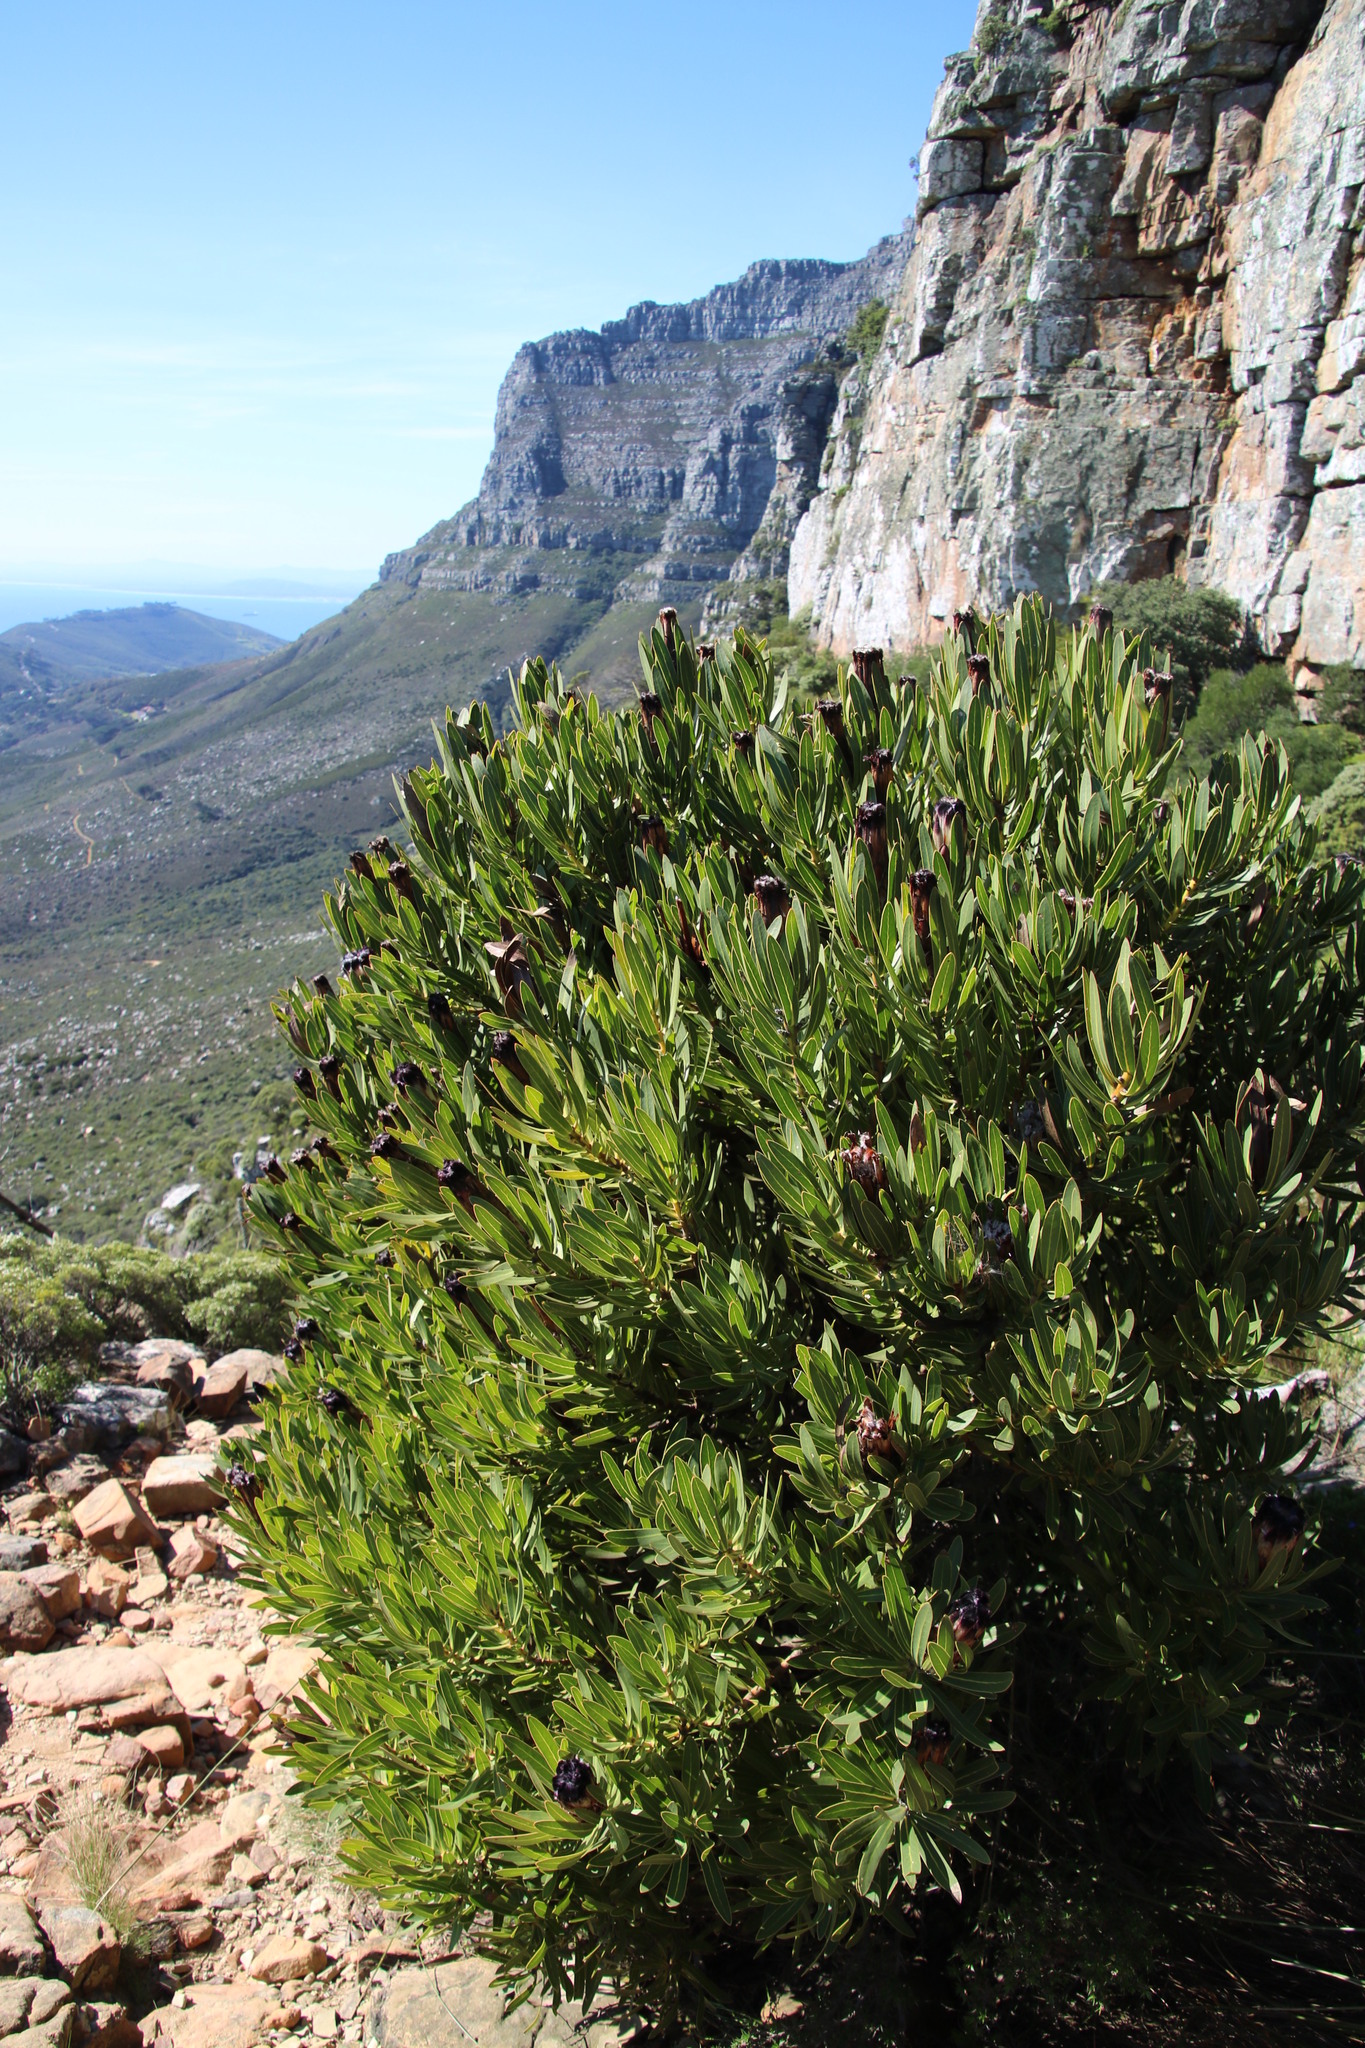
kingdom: Plantae
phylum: Tracheophyta
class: Magnoliopsida
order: Proteales
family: Proteaceae
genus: Protea
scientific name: Protea lepidocarpodendron
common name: Black-bearded protea
